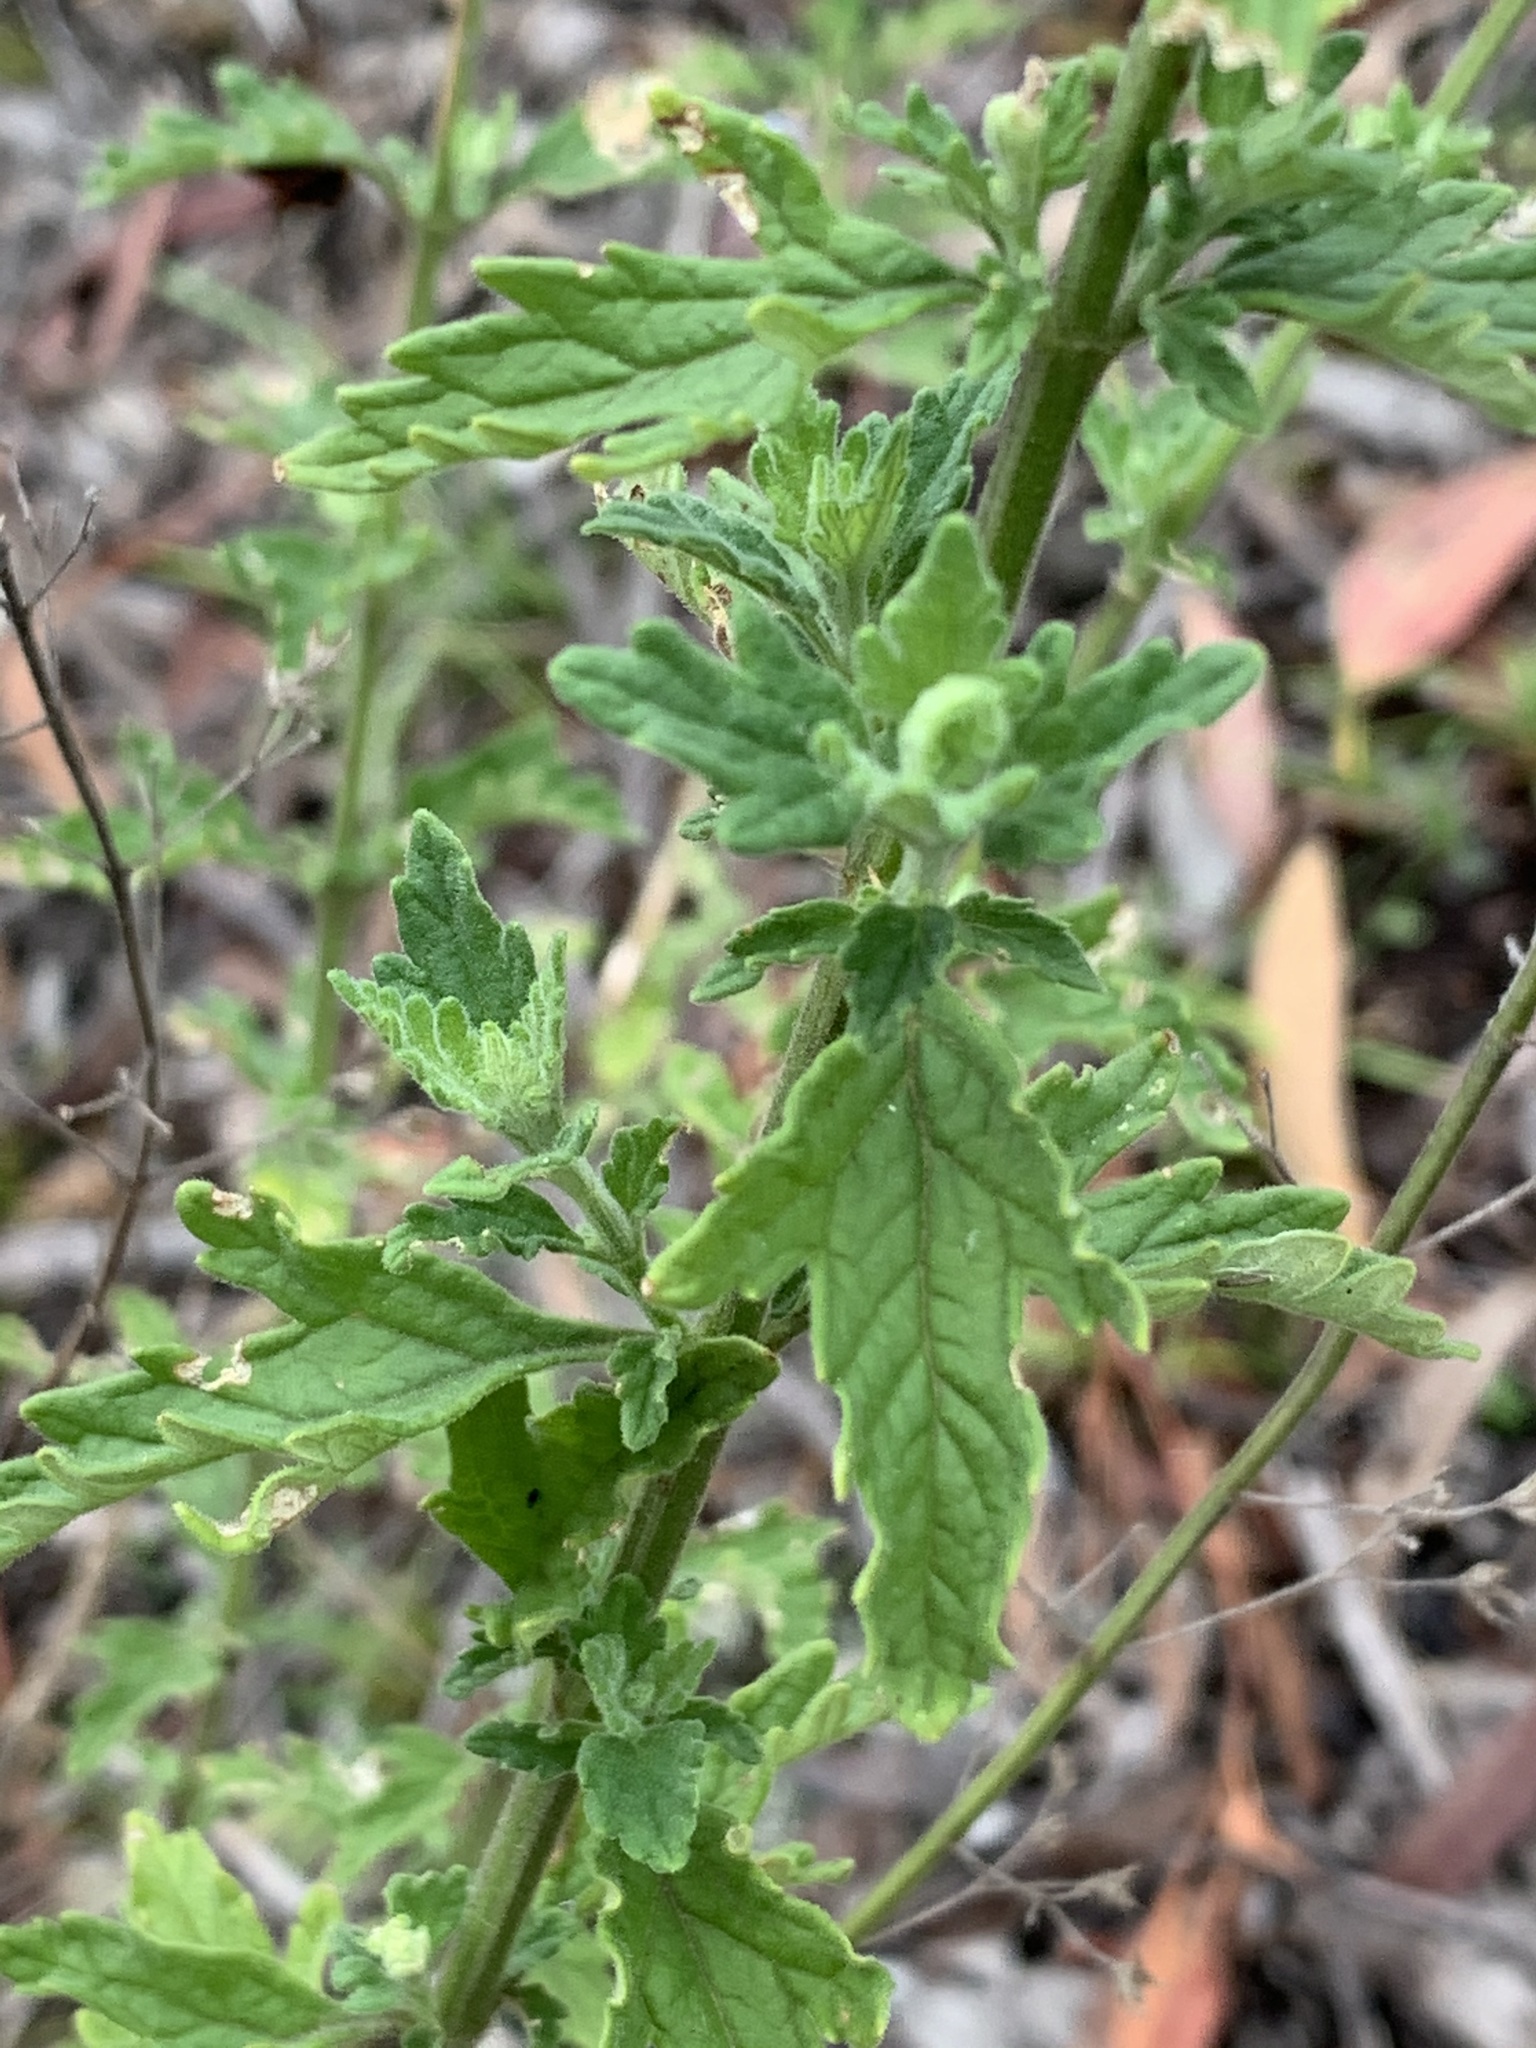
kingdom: Plantae
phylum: Tracheophyta
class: Magnoliopsida
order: Lamiales
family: Lamiaceae
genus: Teucrium
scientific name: Teucrium corymbosum
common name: Forest germander
